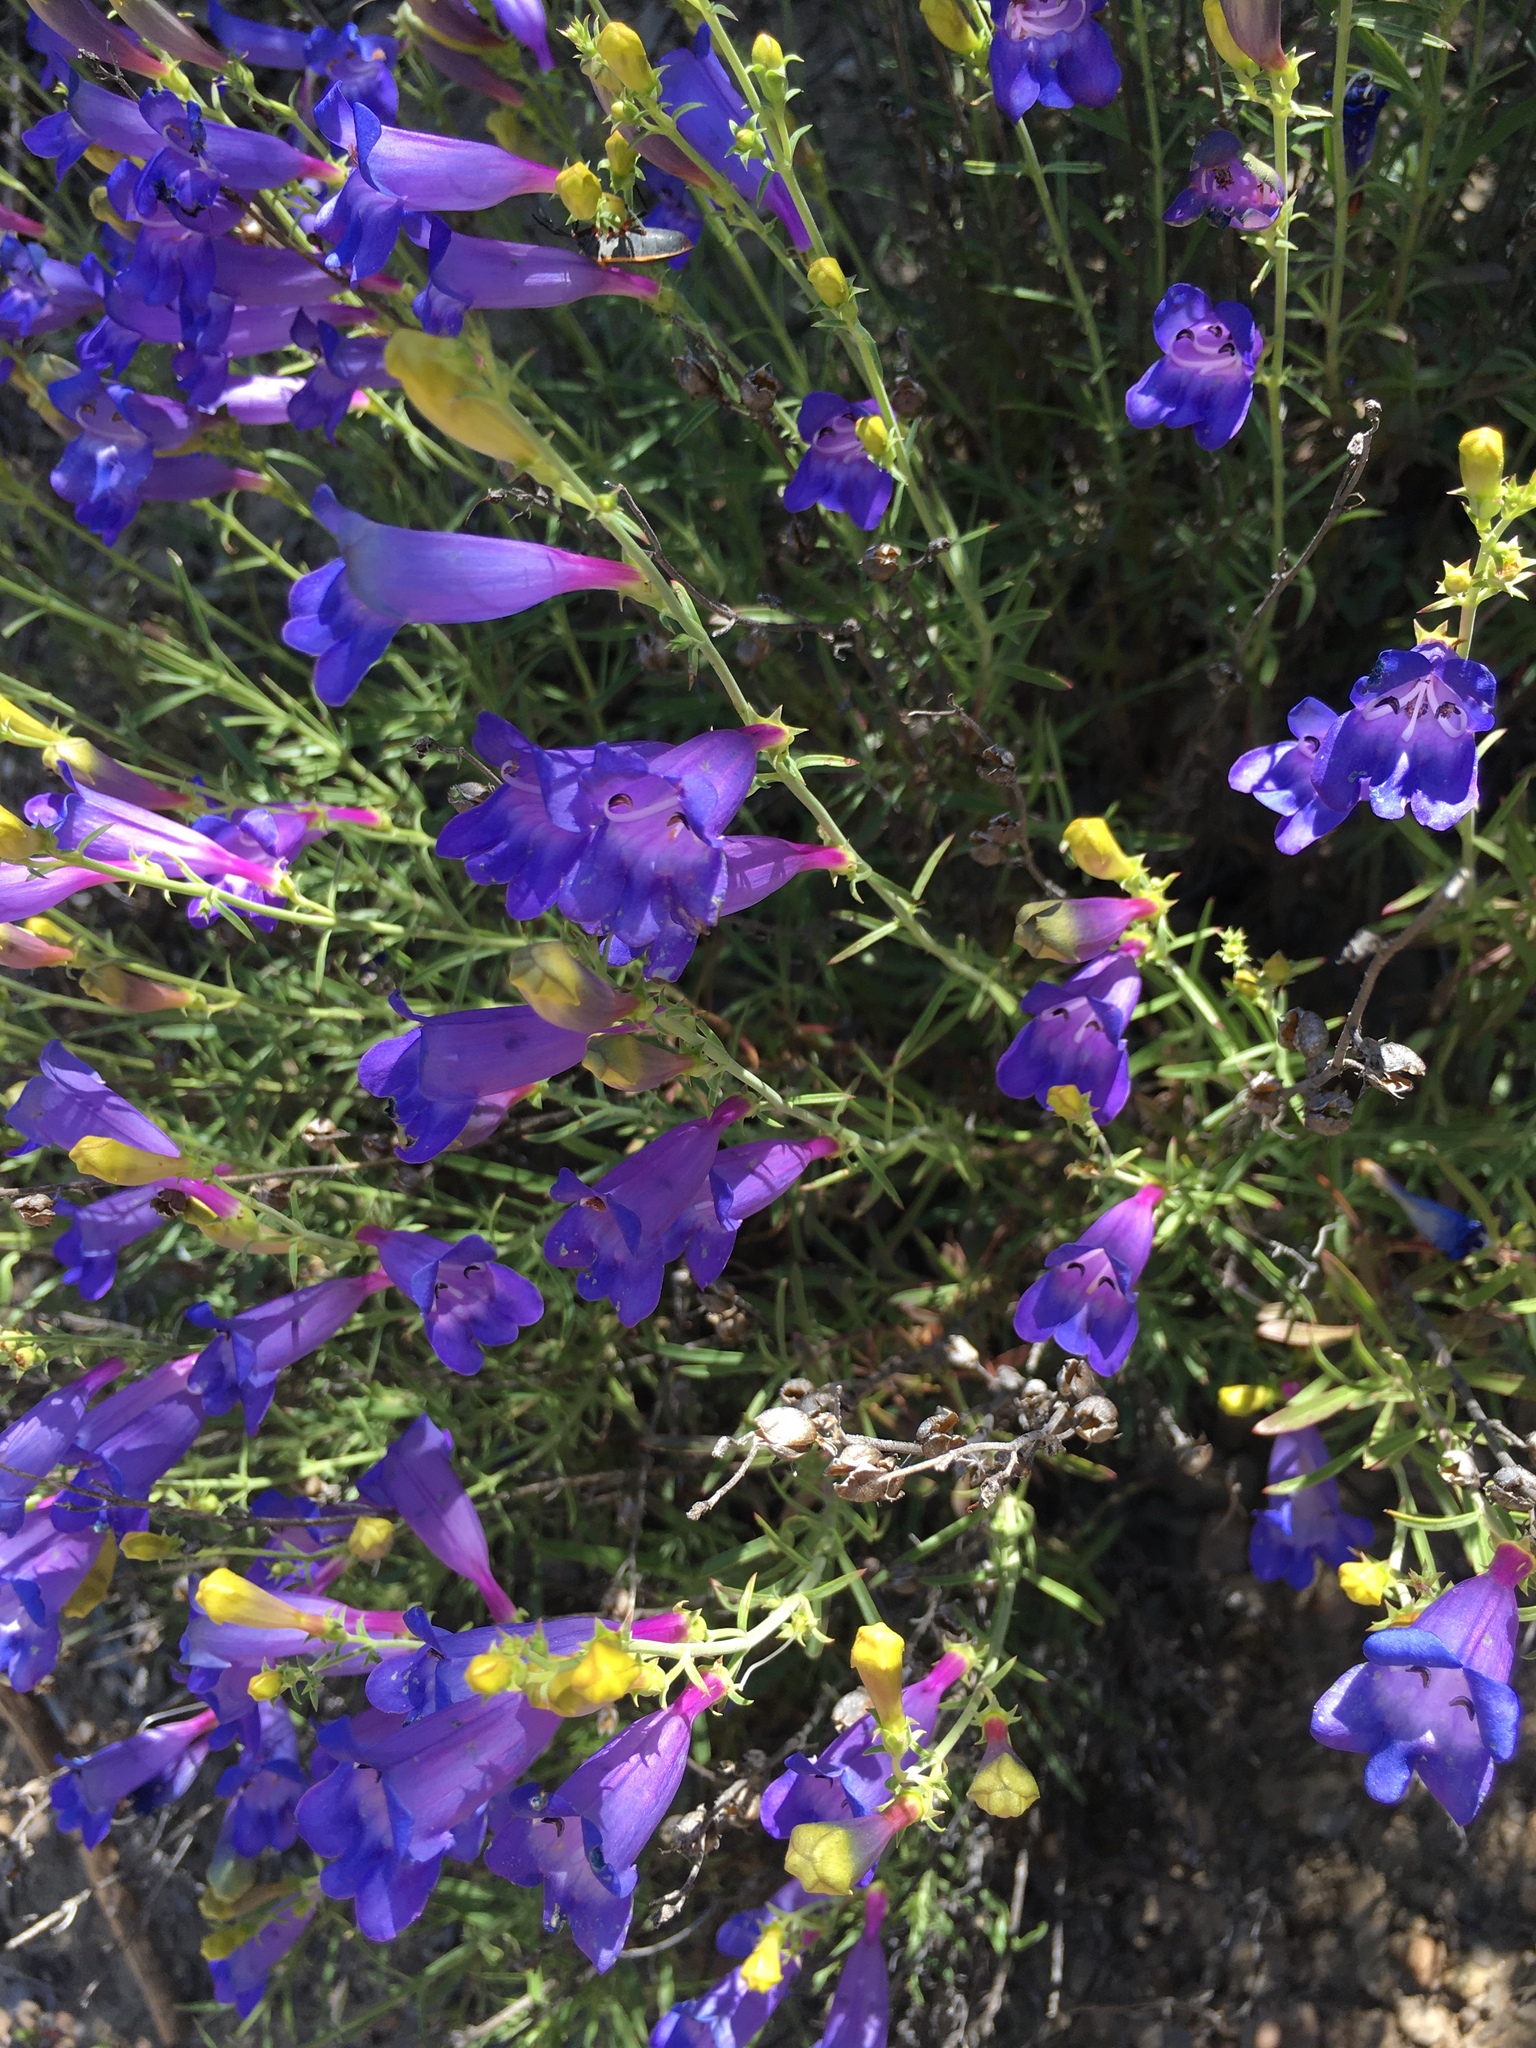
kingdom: Plantae
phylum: Tracheophyta
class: Magnoliopsida
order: Lamiales
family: Plantaginaceae
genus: Penstemon
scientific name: Penstemon heterophyllus
